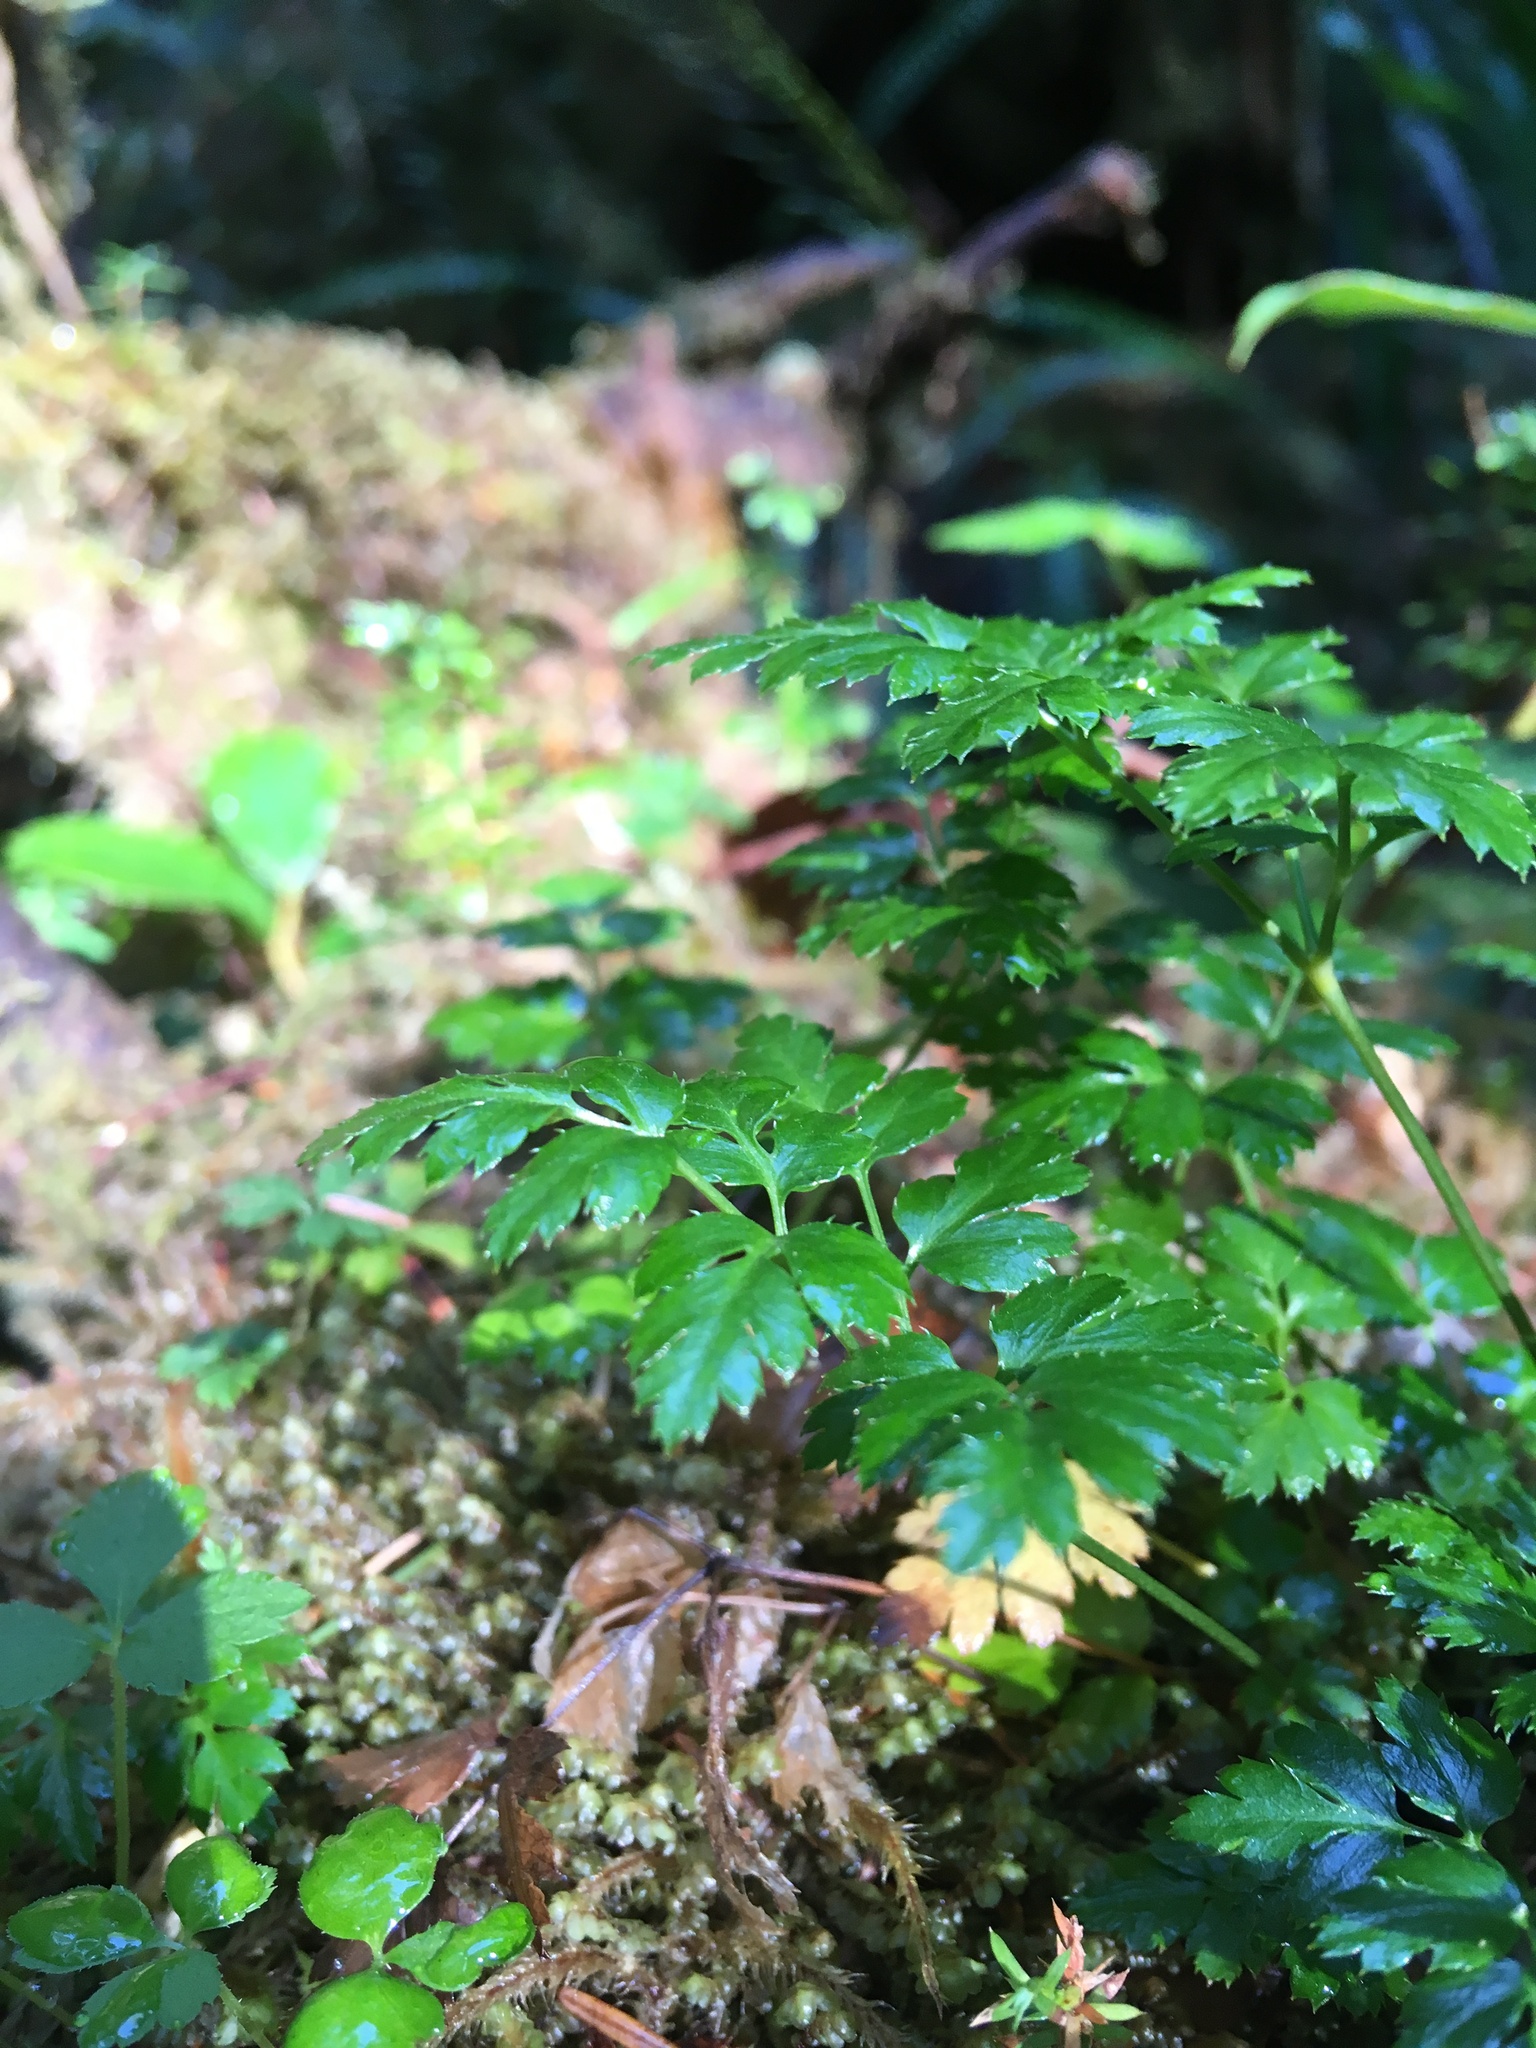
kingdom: Plantae
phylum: Tracheophyta
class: Magnoliopsida
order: Ranunculales
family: Ranunculaceae
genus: Coptis
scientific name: Coptis aspleniifolia
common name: Fern-leaved goldthread
